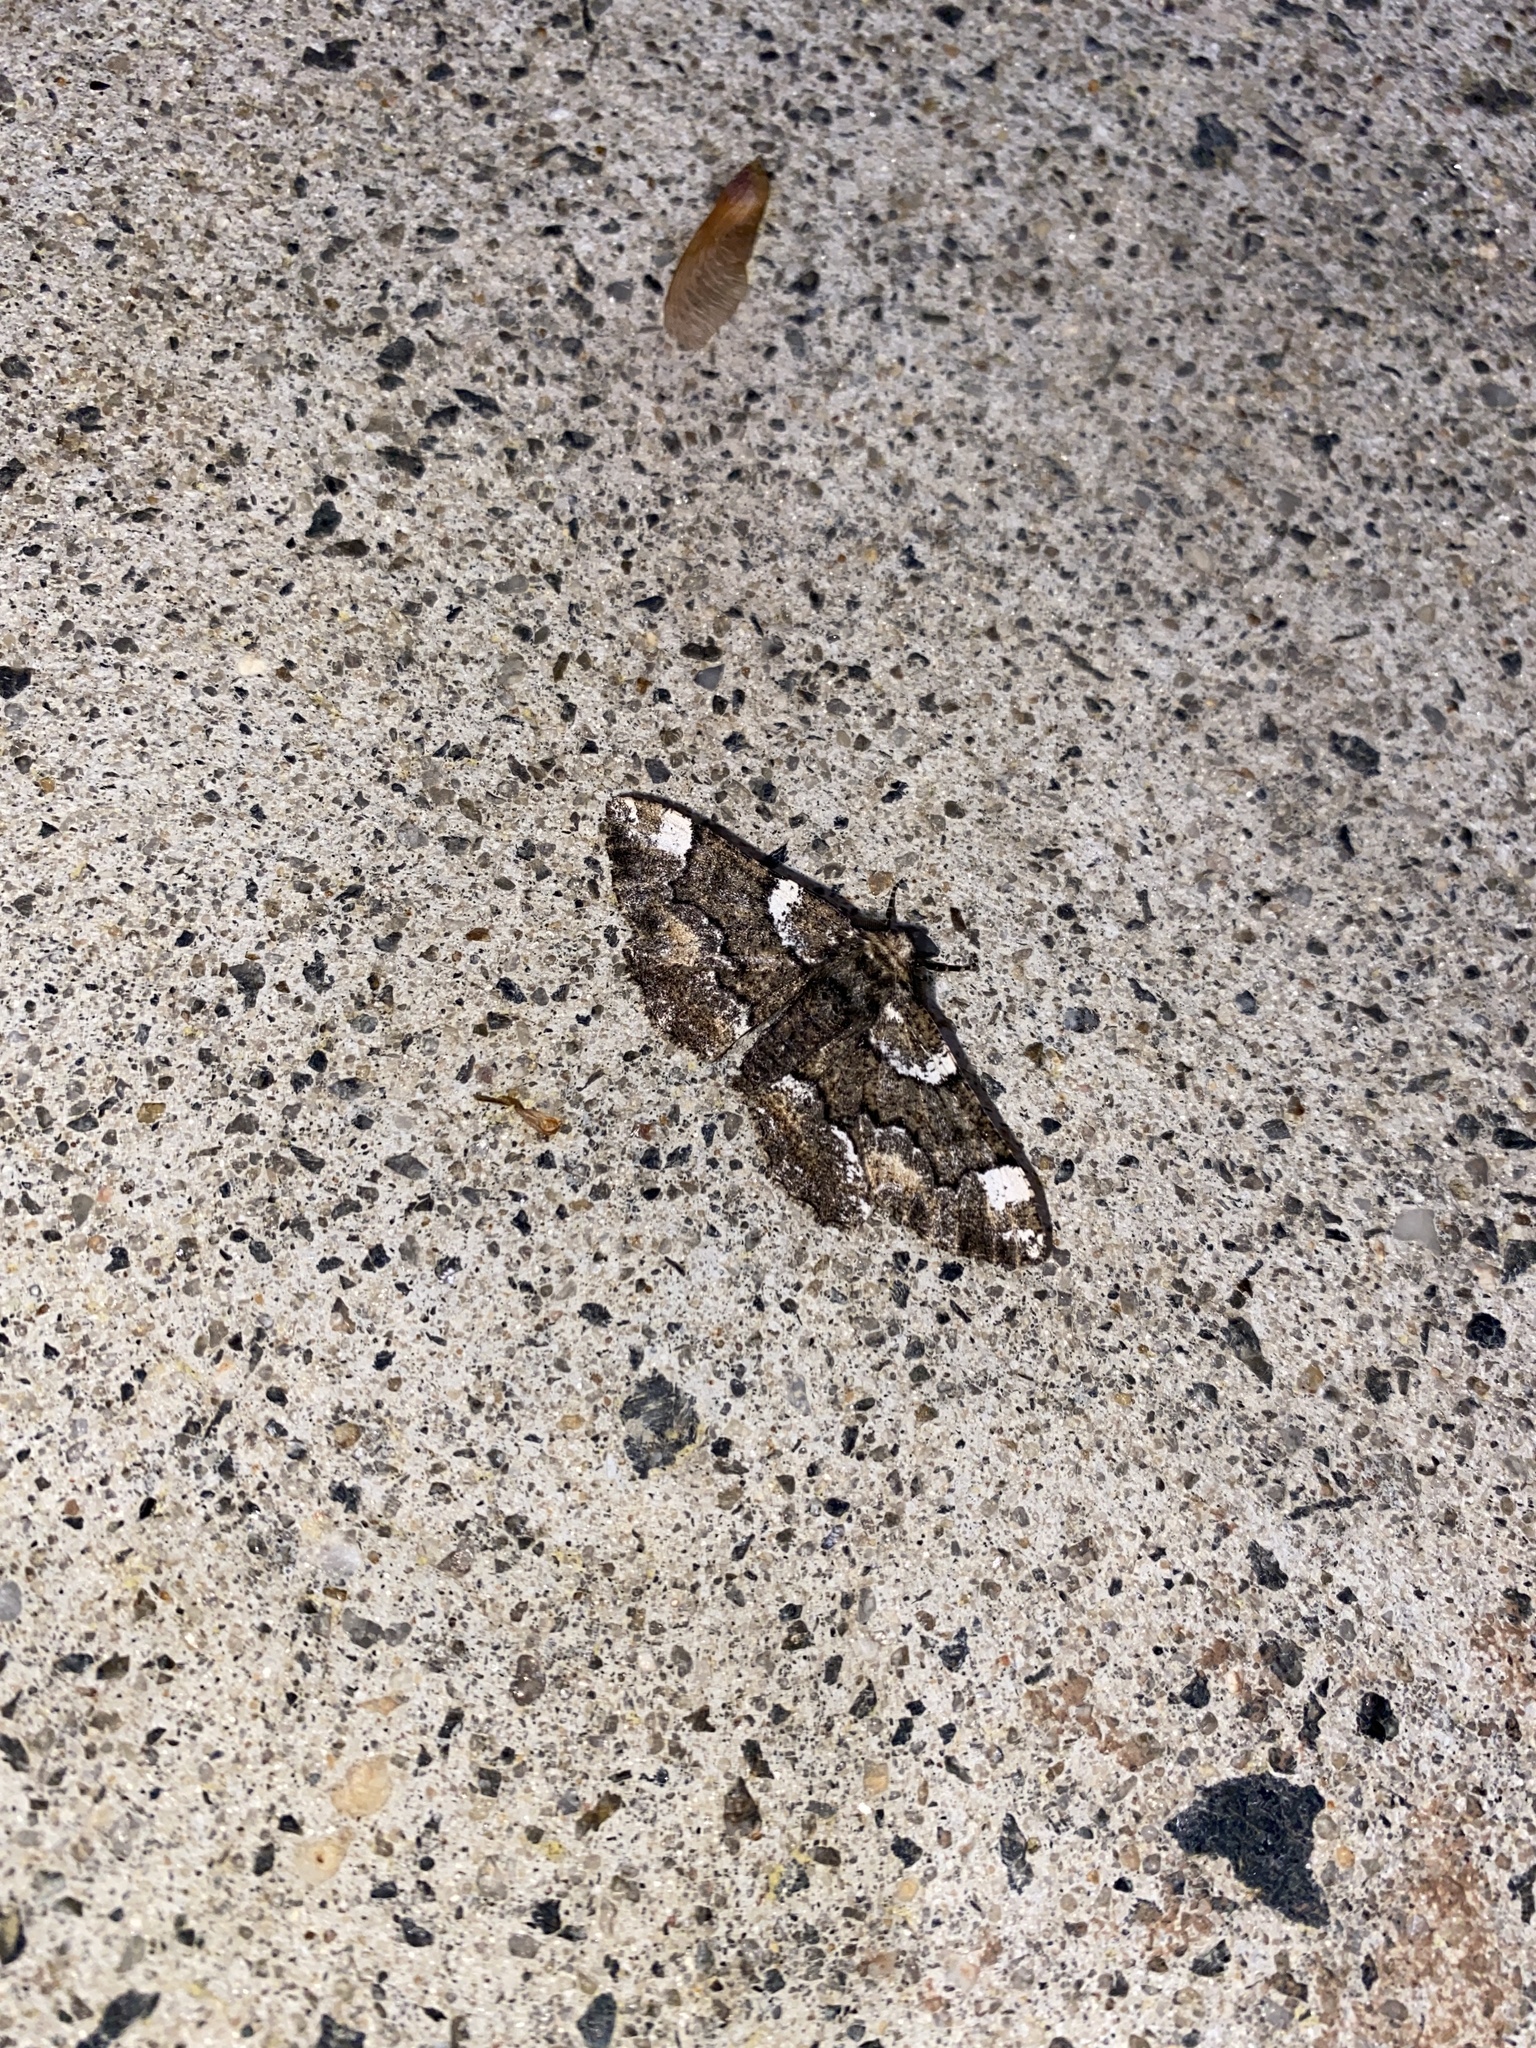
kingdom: Animalia
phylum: Arthropoda
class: Insecta
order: Lepidoptera
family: Geometridae
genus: Phaeoura
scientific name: Phaeoura quernaria
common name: Oak beauty
